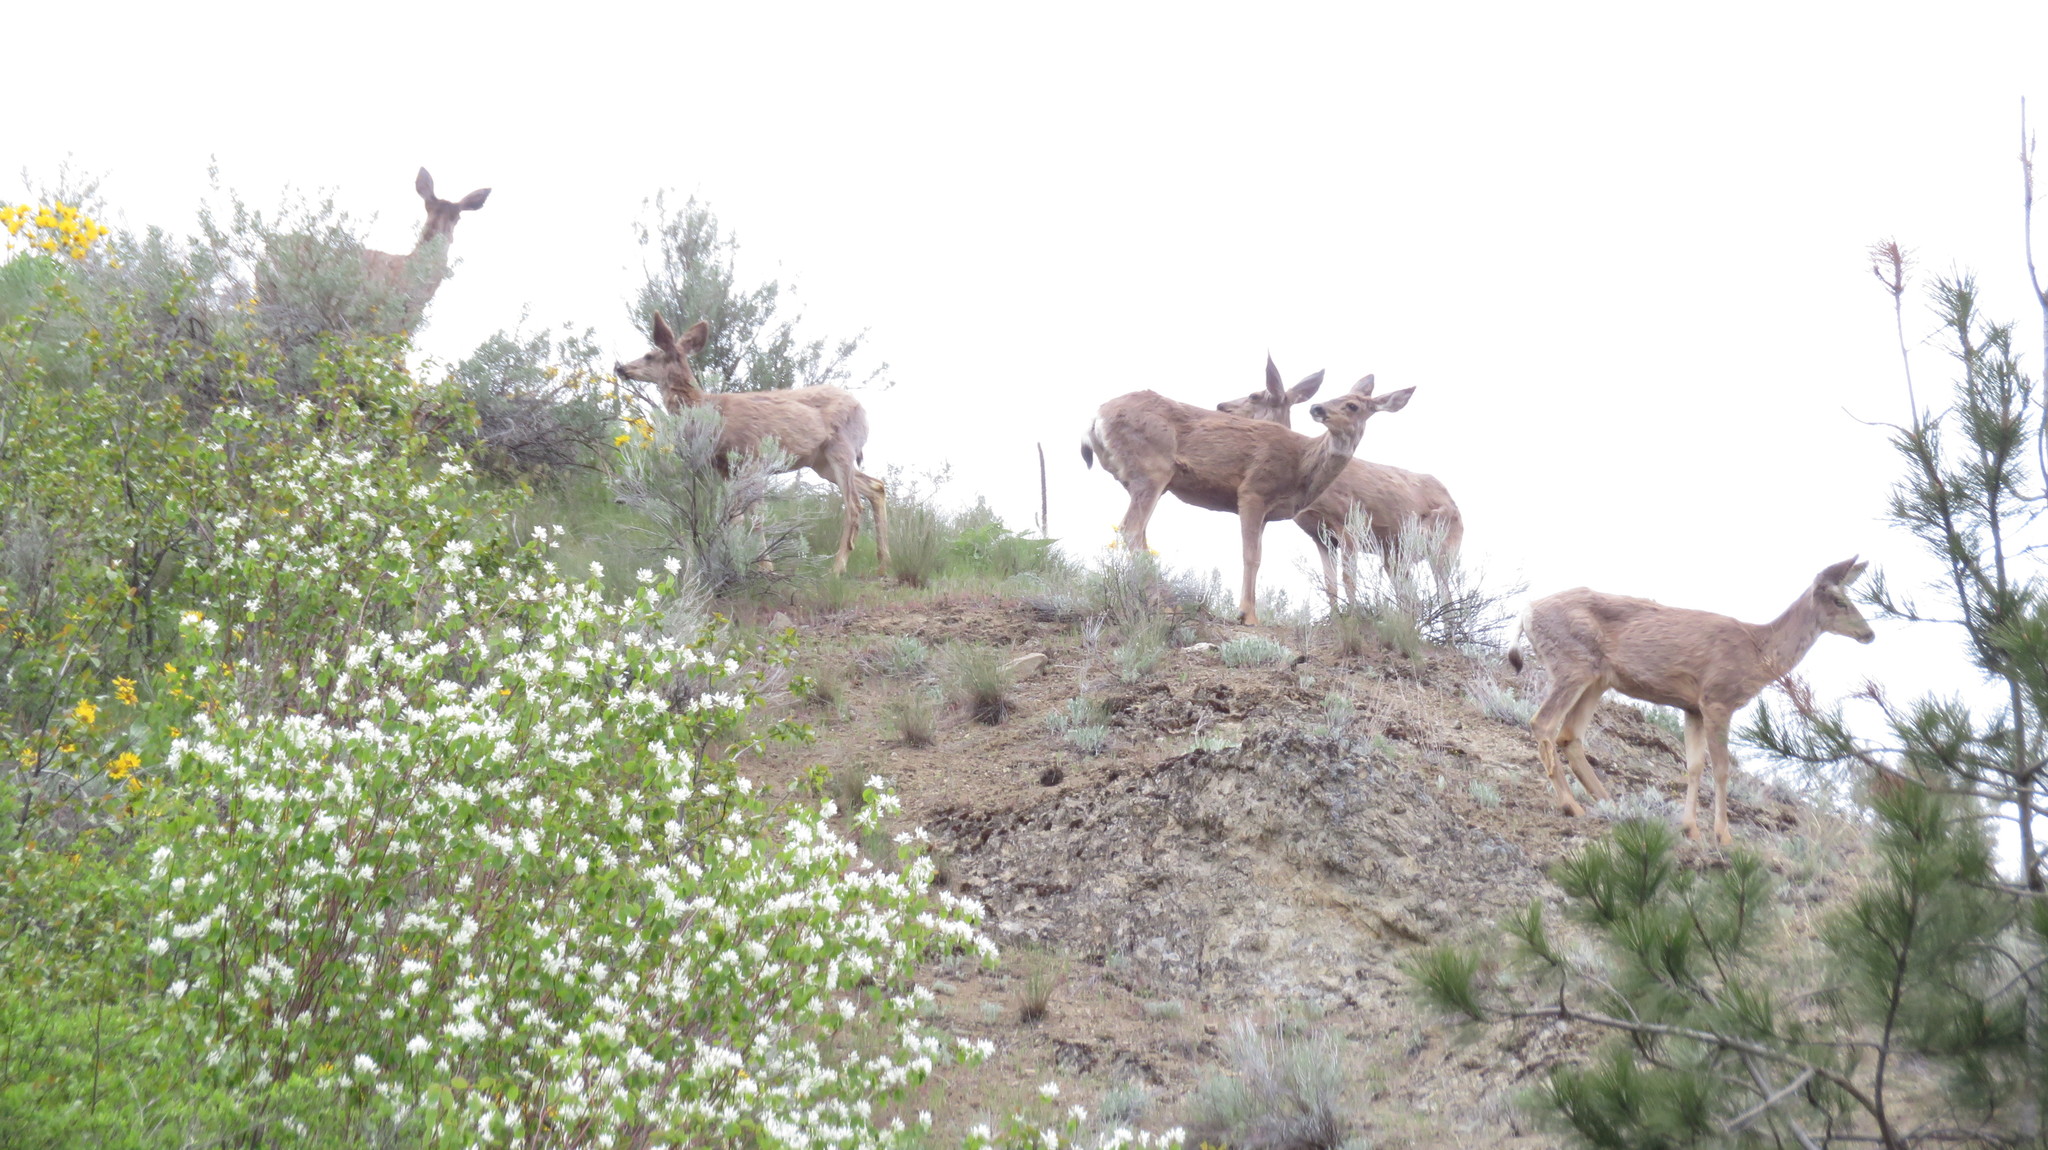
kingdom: Animalia
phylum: Chordata
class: Mammalia
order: Artiodactyla
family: Cervidae
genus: Odocoileus
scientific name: Odocoileus hemionus
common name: Mule deer
